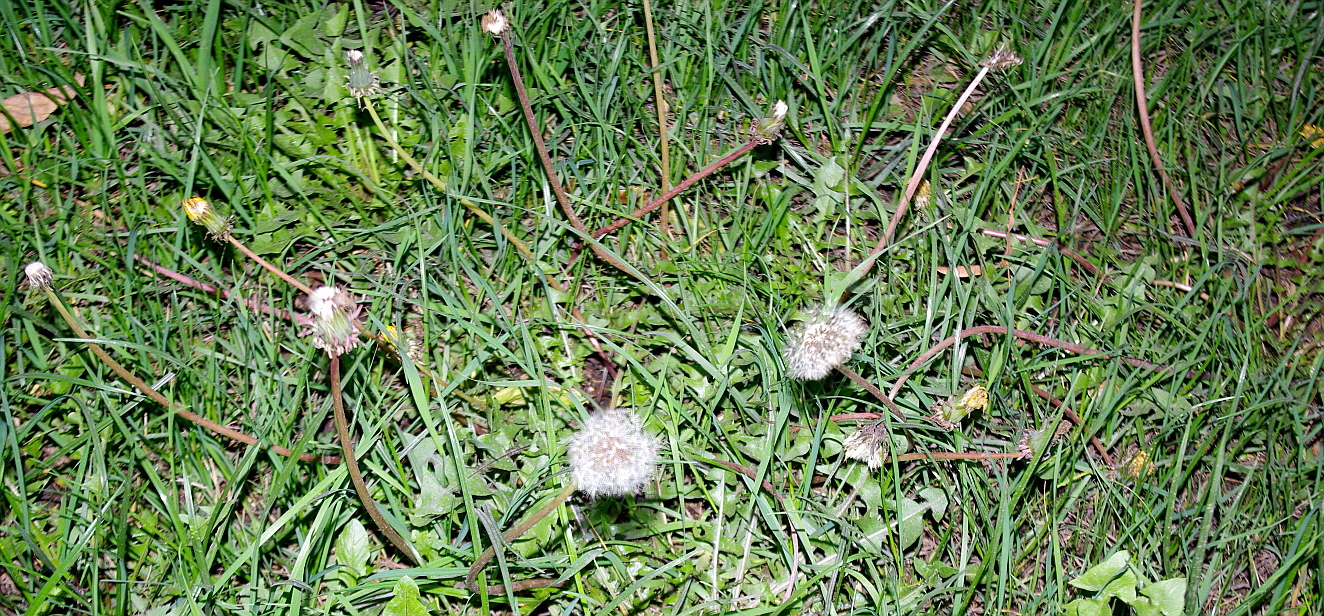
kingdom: Plantae
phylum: Tracheophyta
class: Magnoliopsida
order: Asterales
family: Asteraceae
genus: Taraxacum
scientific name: Taraxacum officinale
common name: Common dandelion
